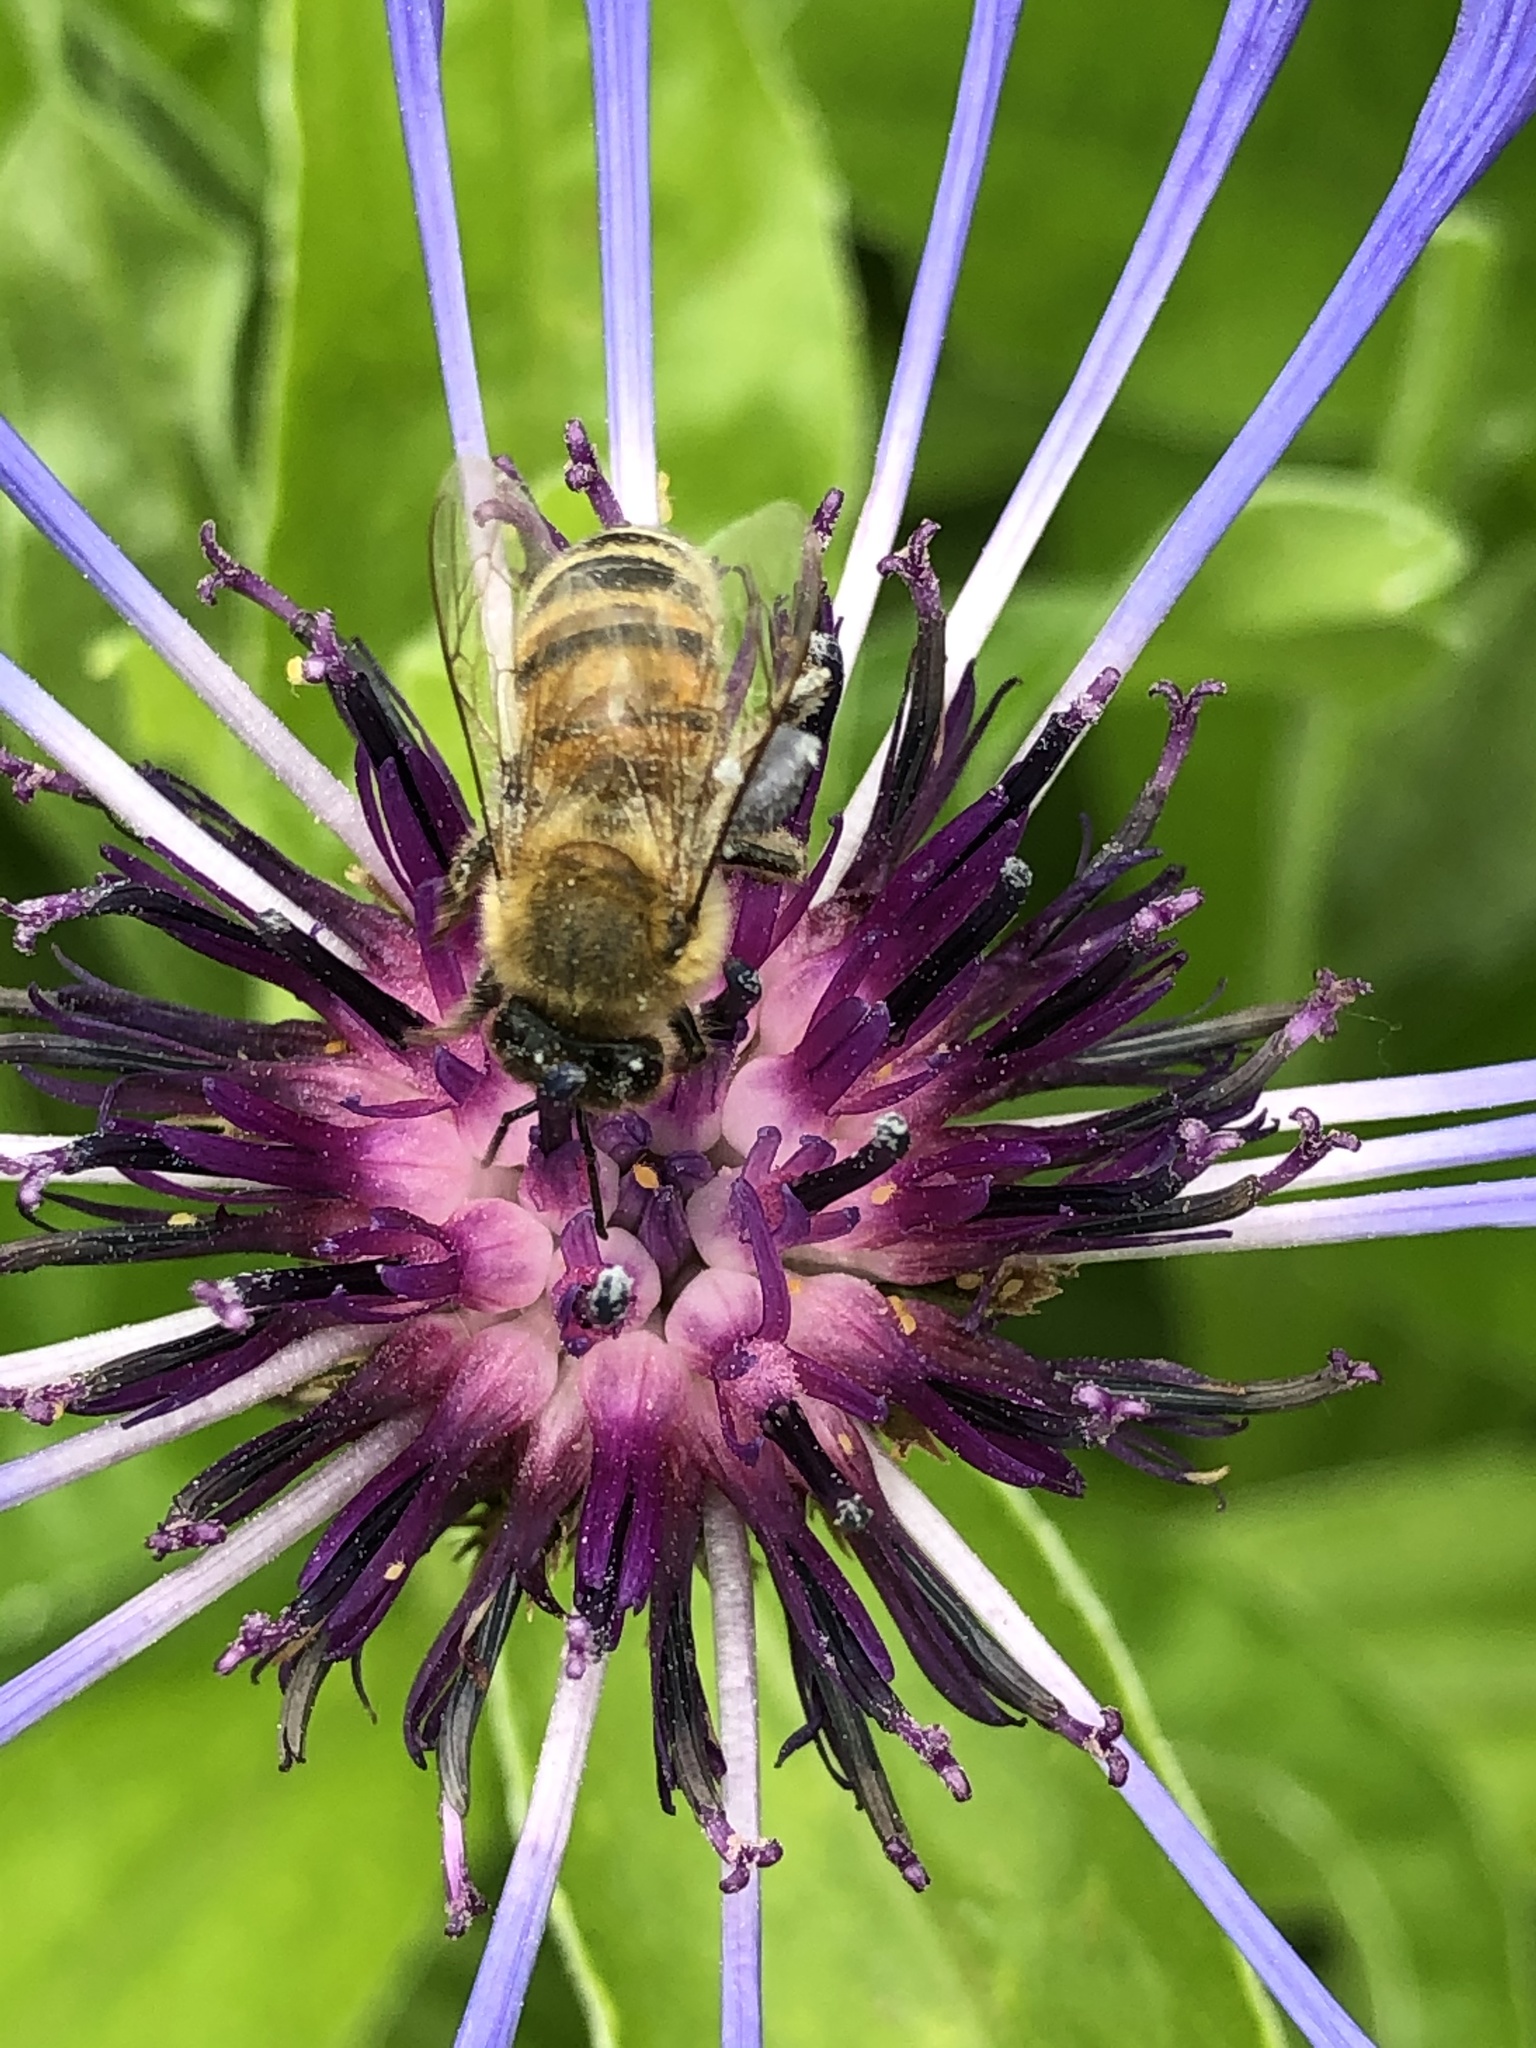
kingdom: Animalia
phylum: Arthropoda
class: Insecta
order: Hymenoptera
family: Apidae
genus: Apis
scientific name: Apis mellifera
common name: Honey bee
